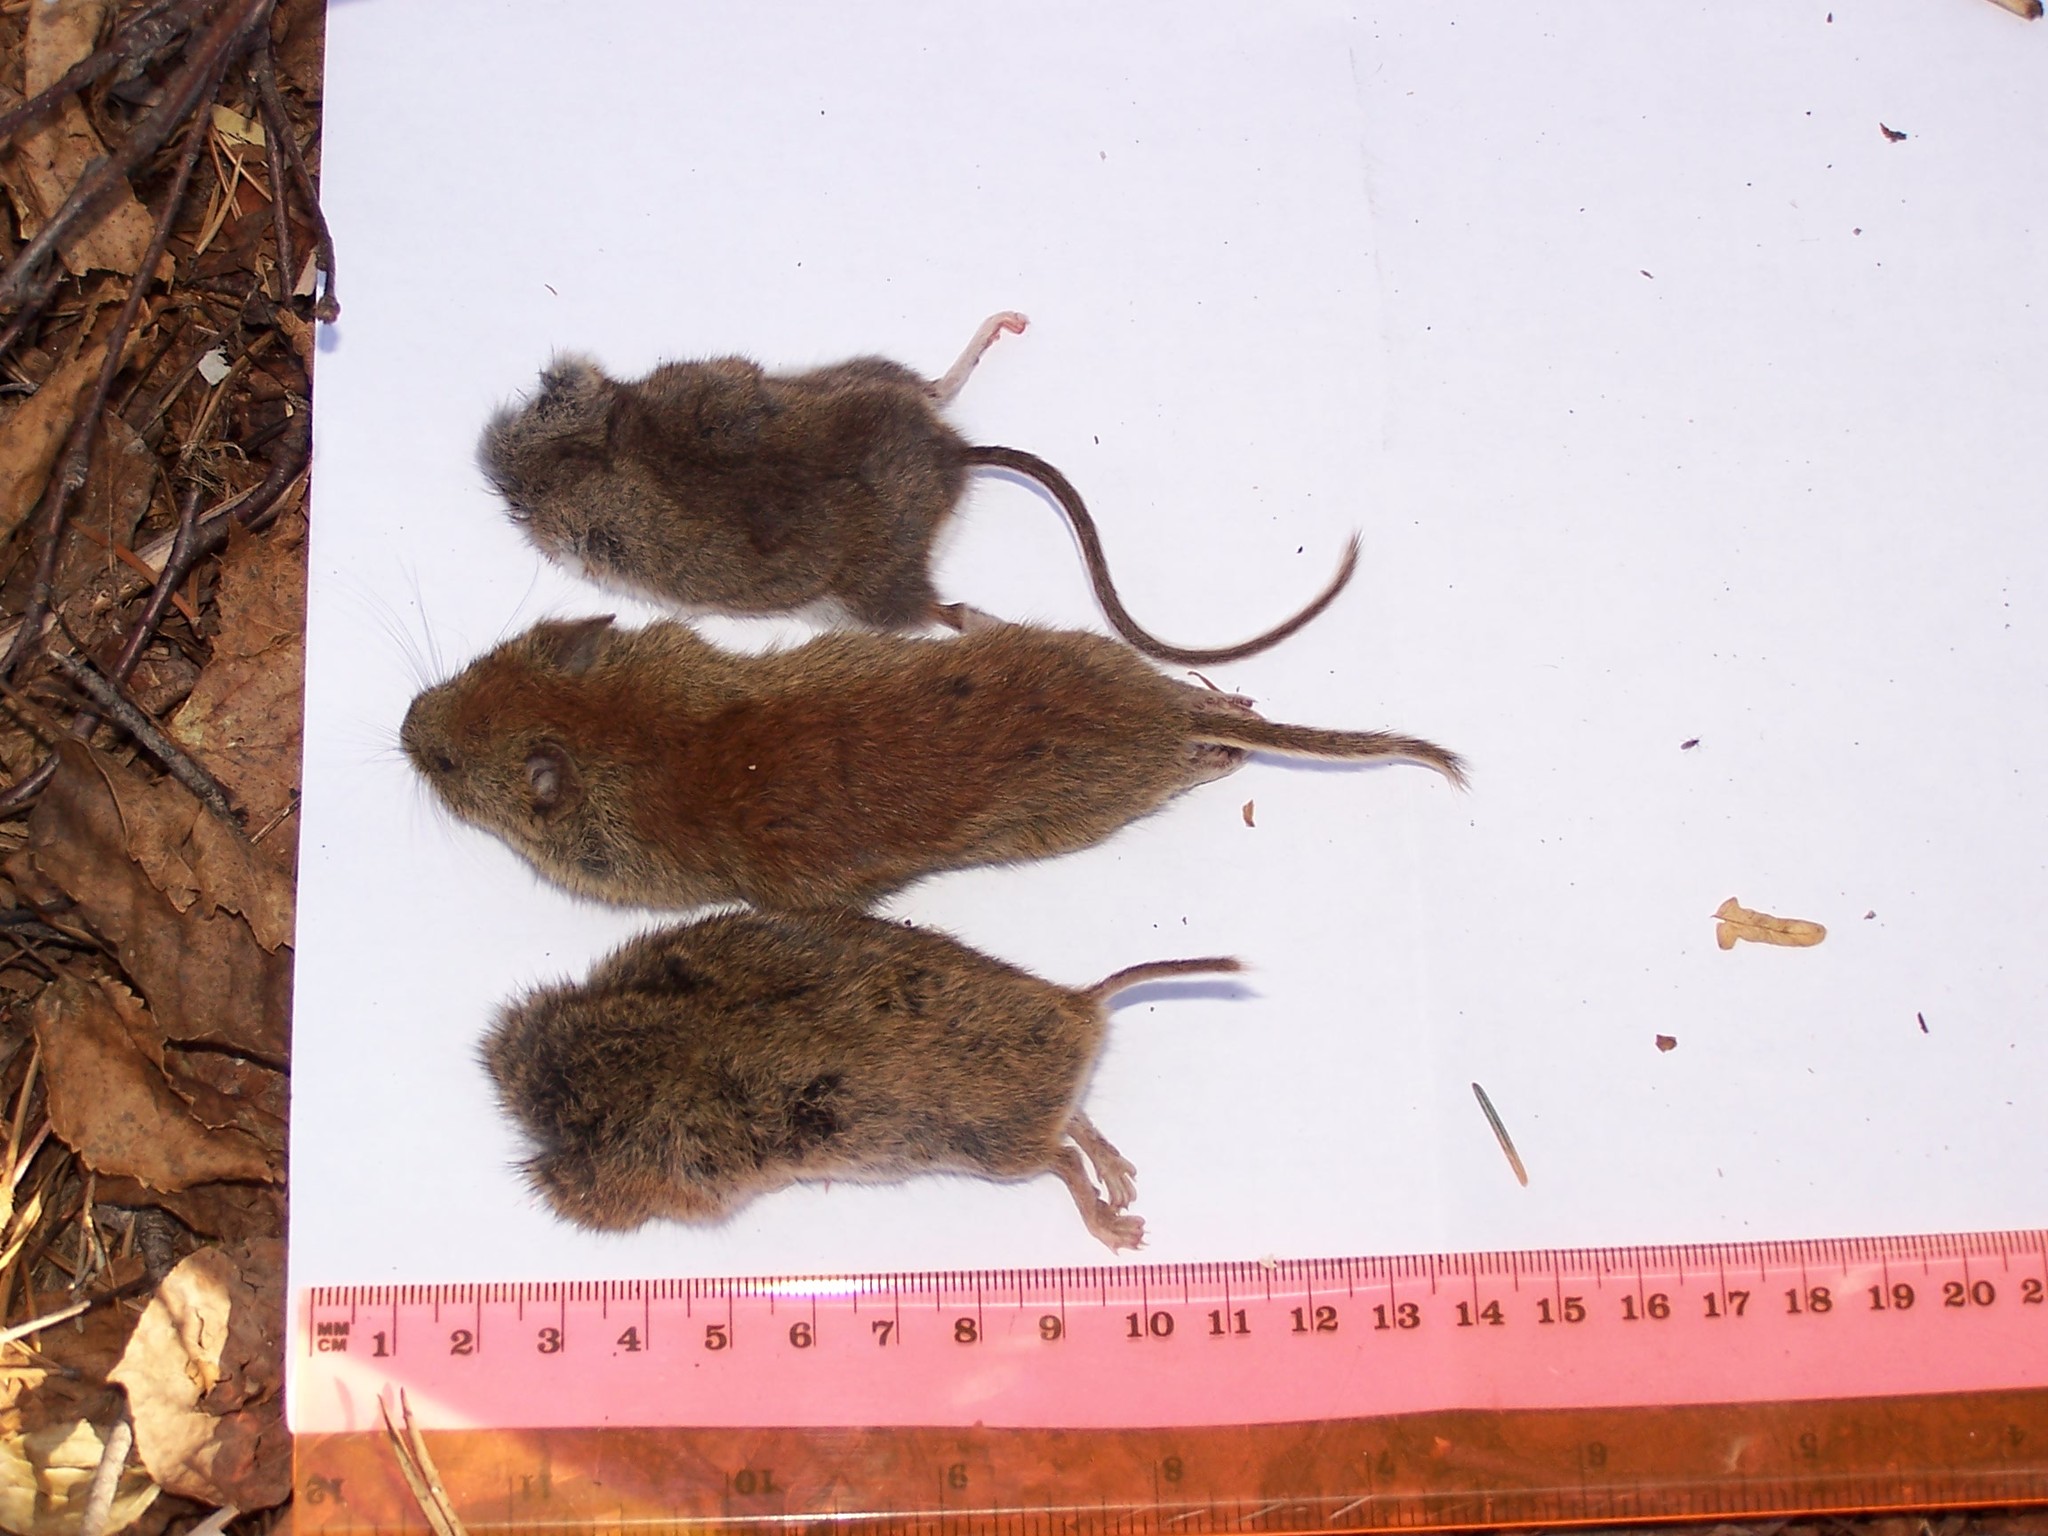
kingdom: Animalia
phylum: Chordata
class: Mammalia
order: Rodentia
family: Cricetidae
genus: Synaptomys
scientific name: Synaptomys cooperi
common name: Southern bog lemming
